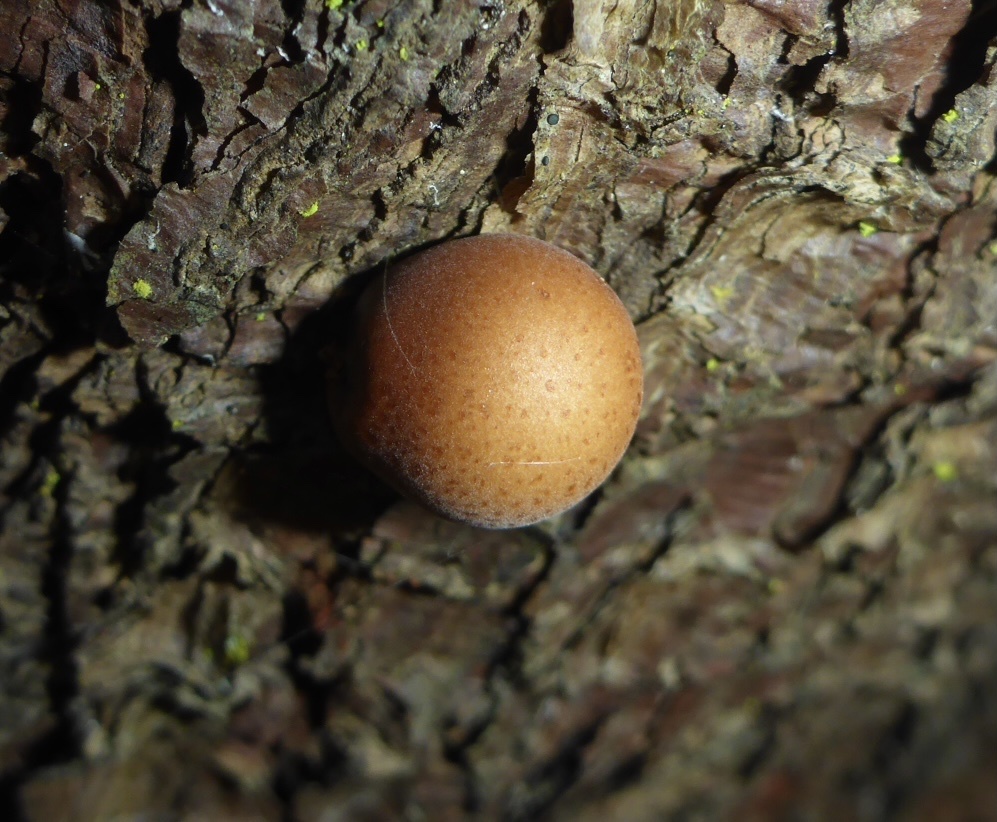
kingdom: Fungi
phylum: Basidiomycota
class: Agaricomycetes
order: Polyporales
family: Polyporaceae
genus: Cryptoporus
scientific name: Cryptoporus volvatus
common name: Veiled polypore
